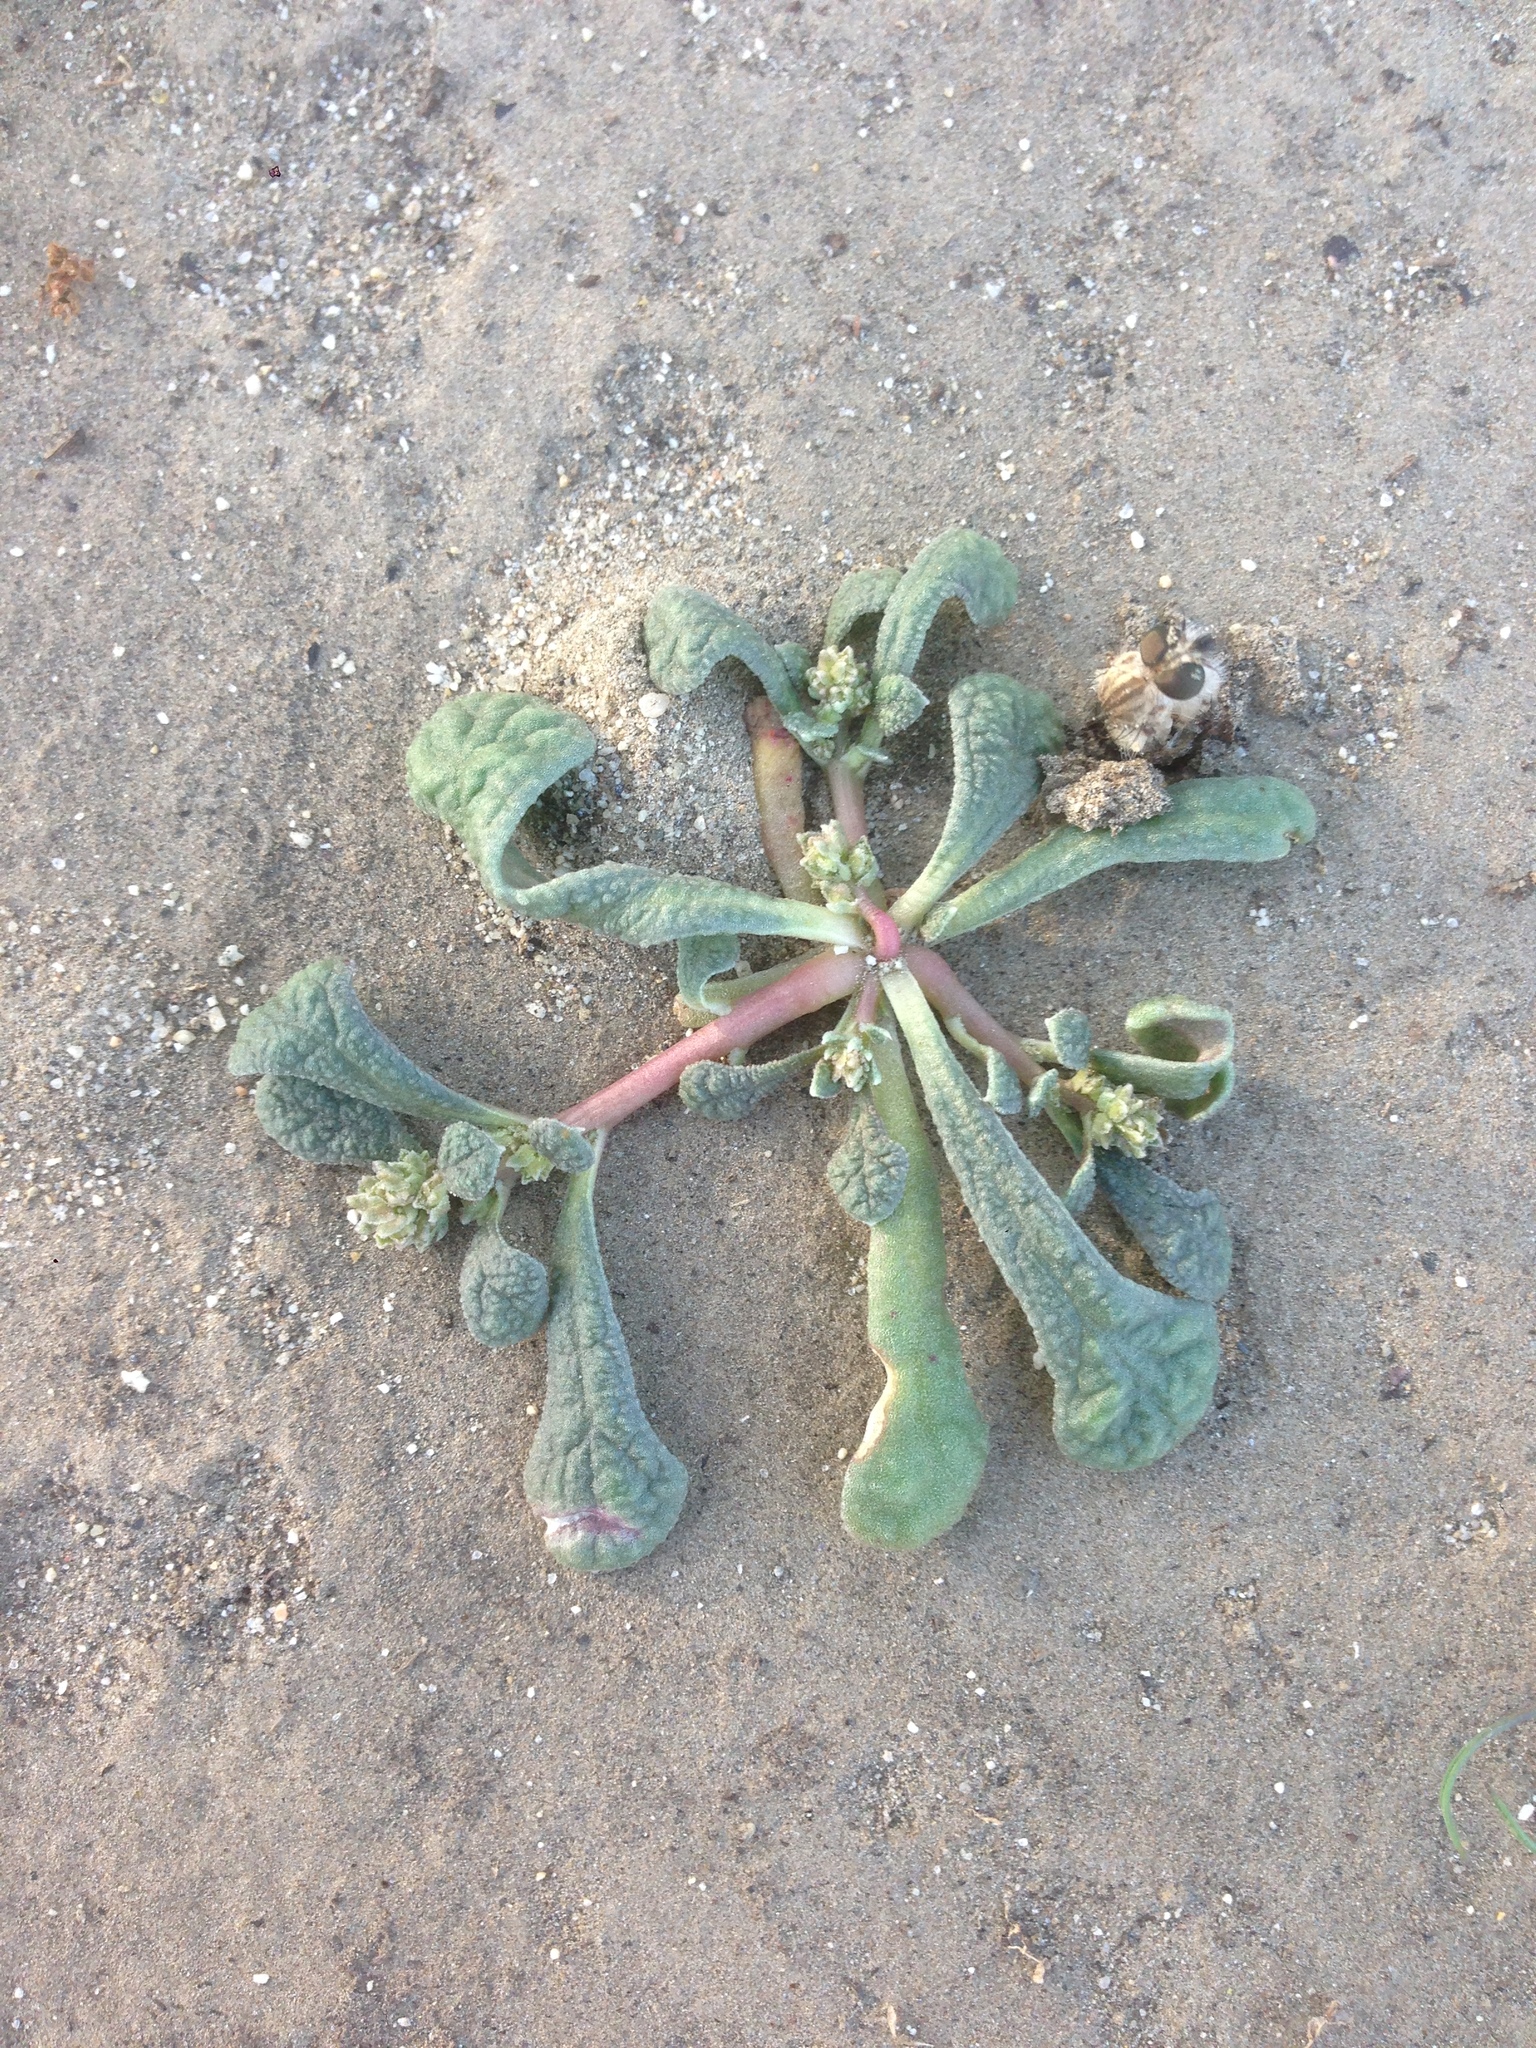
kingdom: Plantae
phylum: Tracheophyta
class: Magnoliopsida
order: Caryophyllales
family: Montiaceae
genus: Calyptridium
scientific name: Calyptridium monandrum
